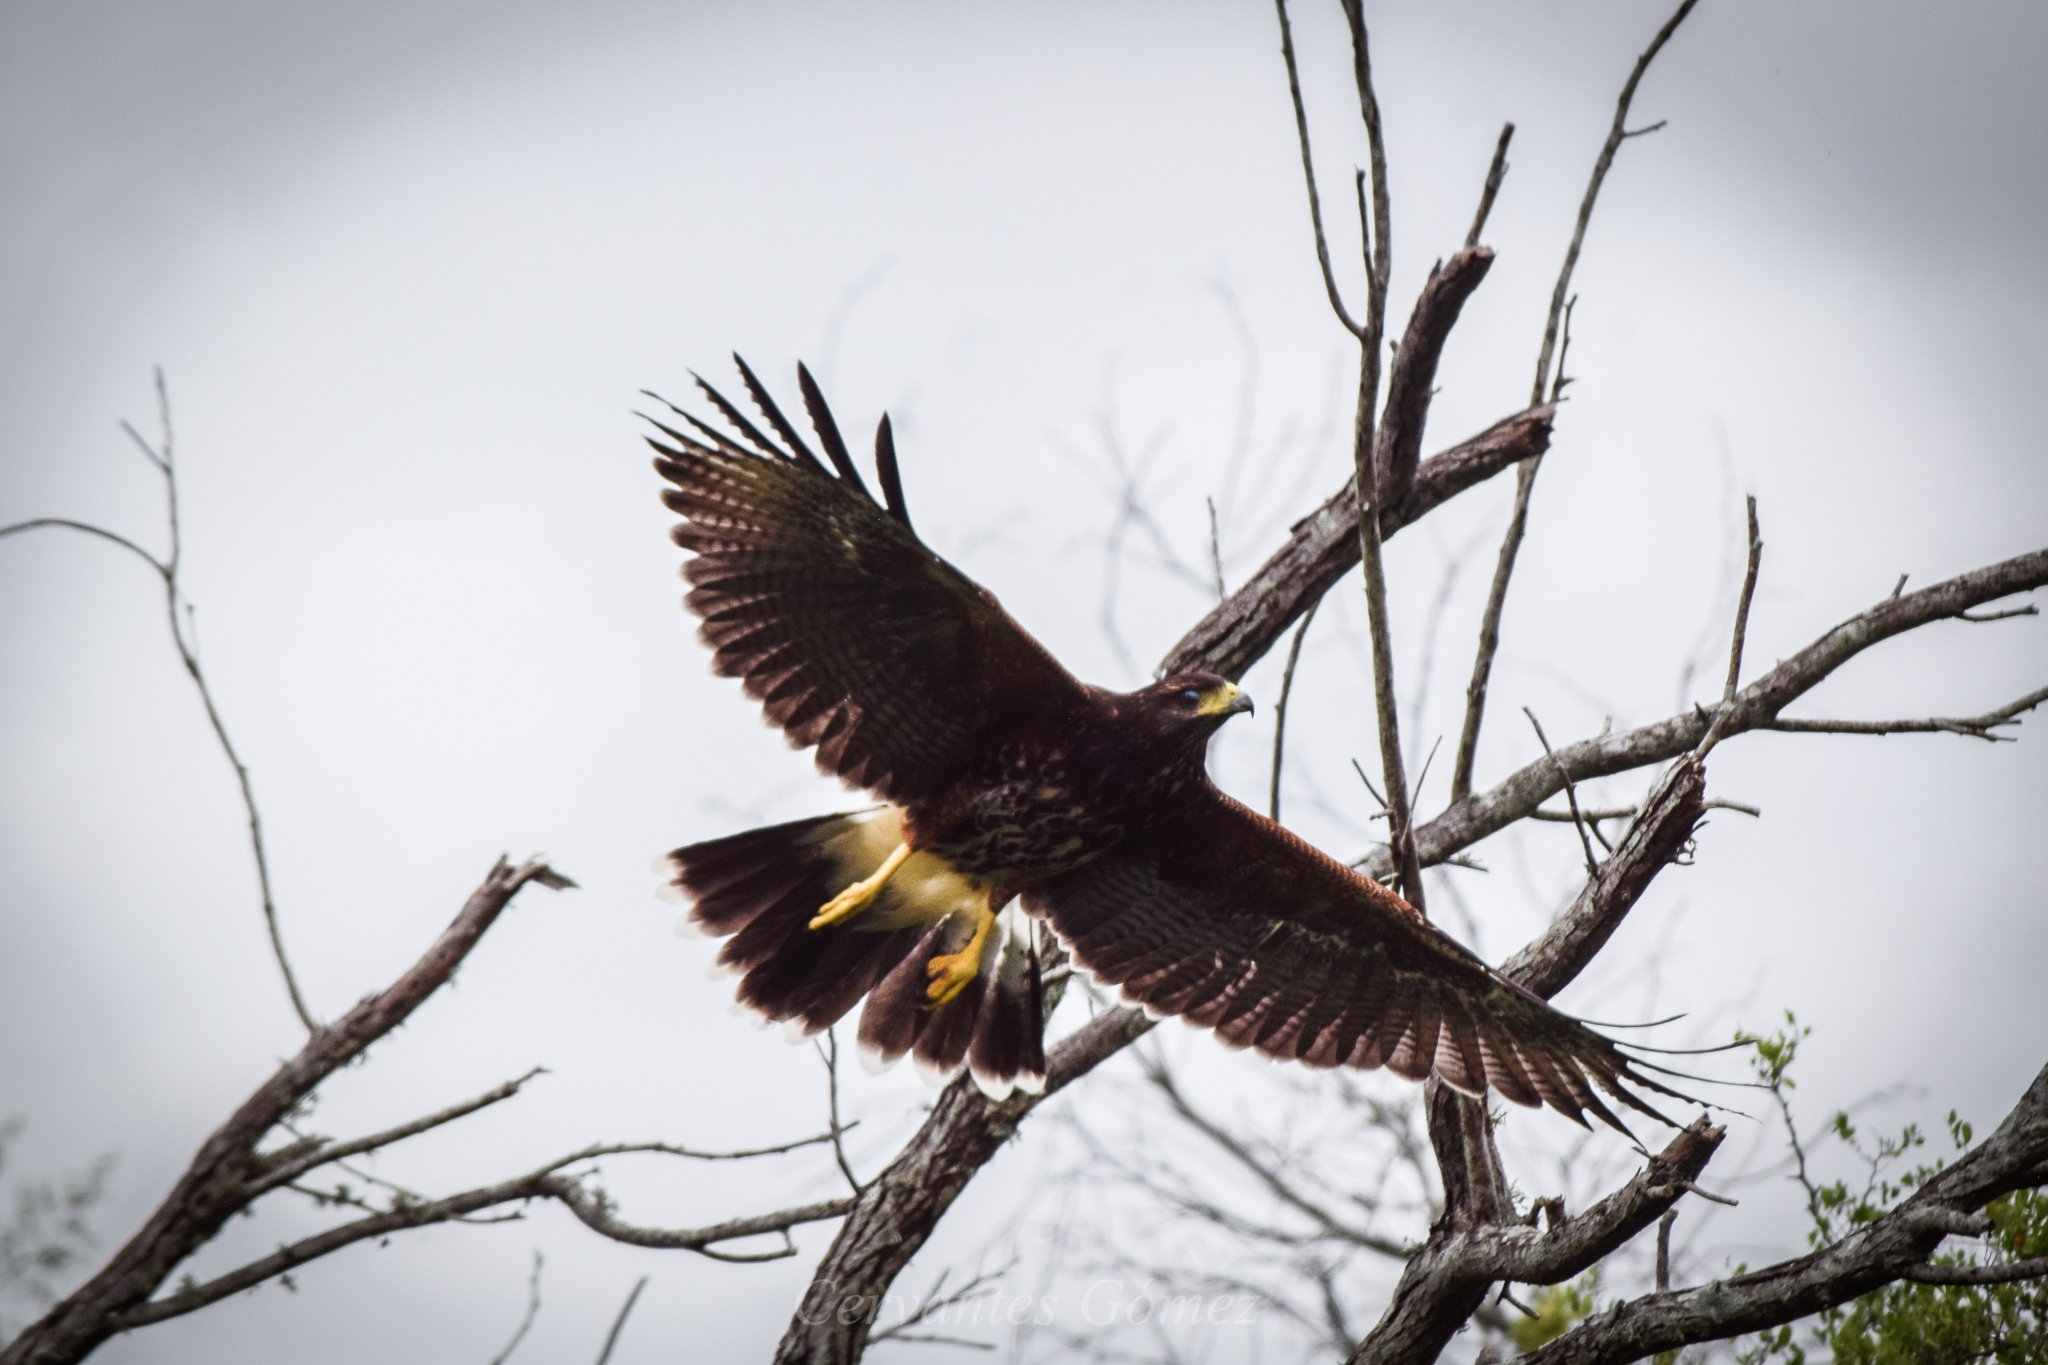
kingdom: Animalia
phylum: Chordata
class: Aves
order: Accipitriformes
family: Accipitridae
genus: Parabuteo
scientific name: Parabuteo unicinctus
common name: Harris's hawk
